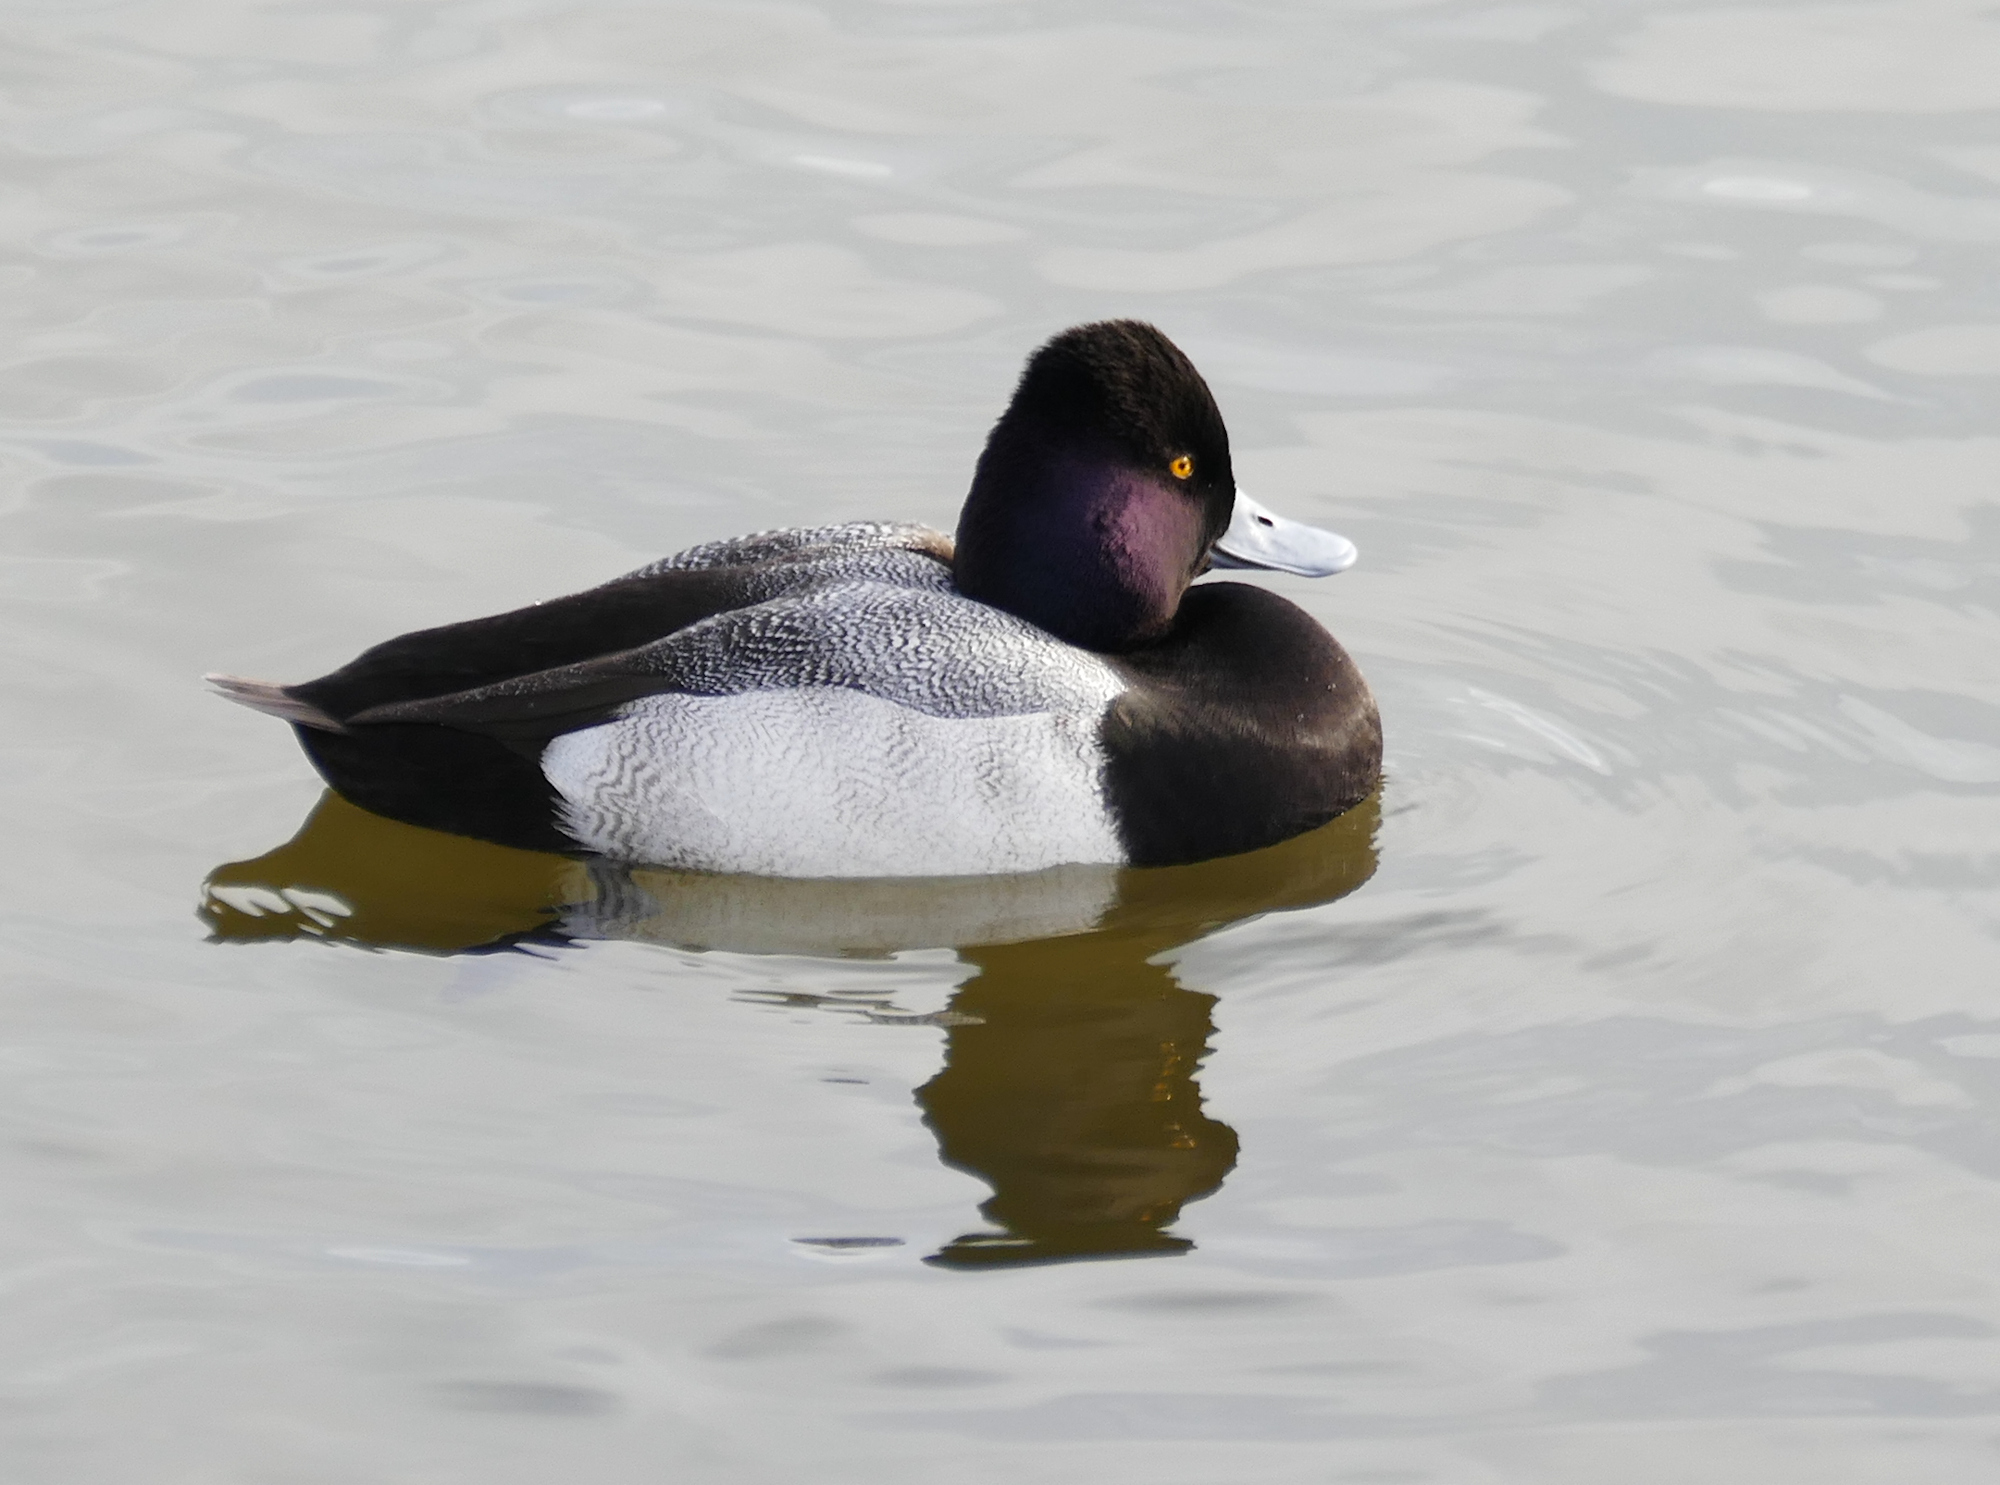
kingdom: Animalia
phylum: Chordata
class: Aves
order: Anseriformes
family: Anatidae
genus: Aythya
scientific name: Aythya affinis
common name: Lesser scaup
